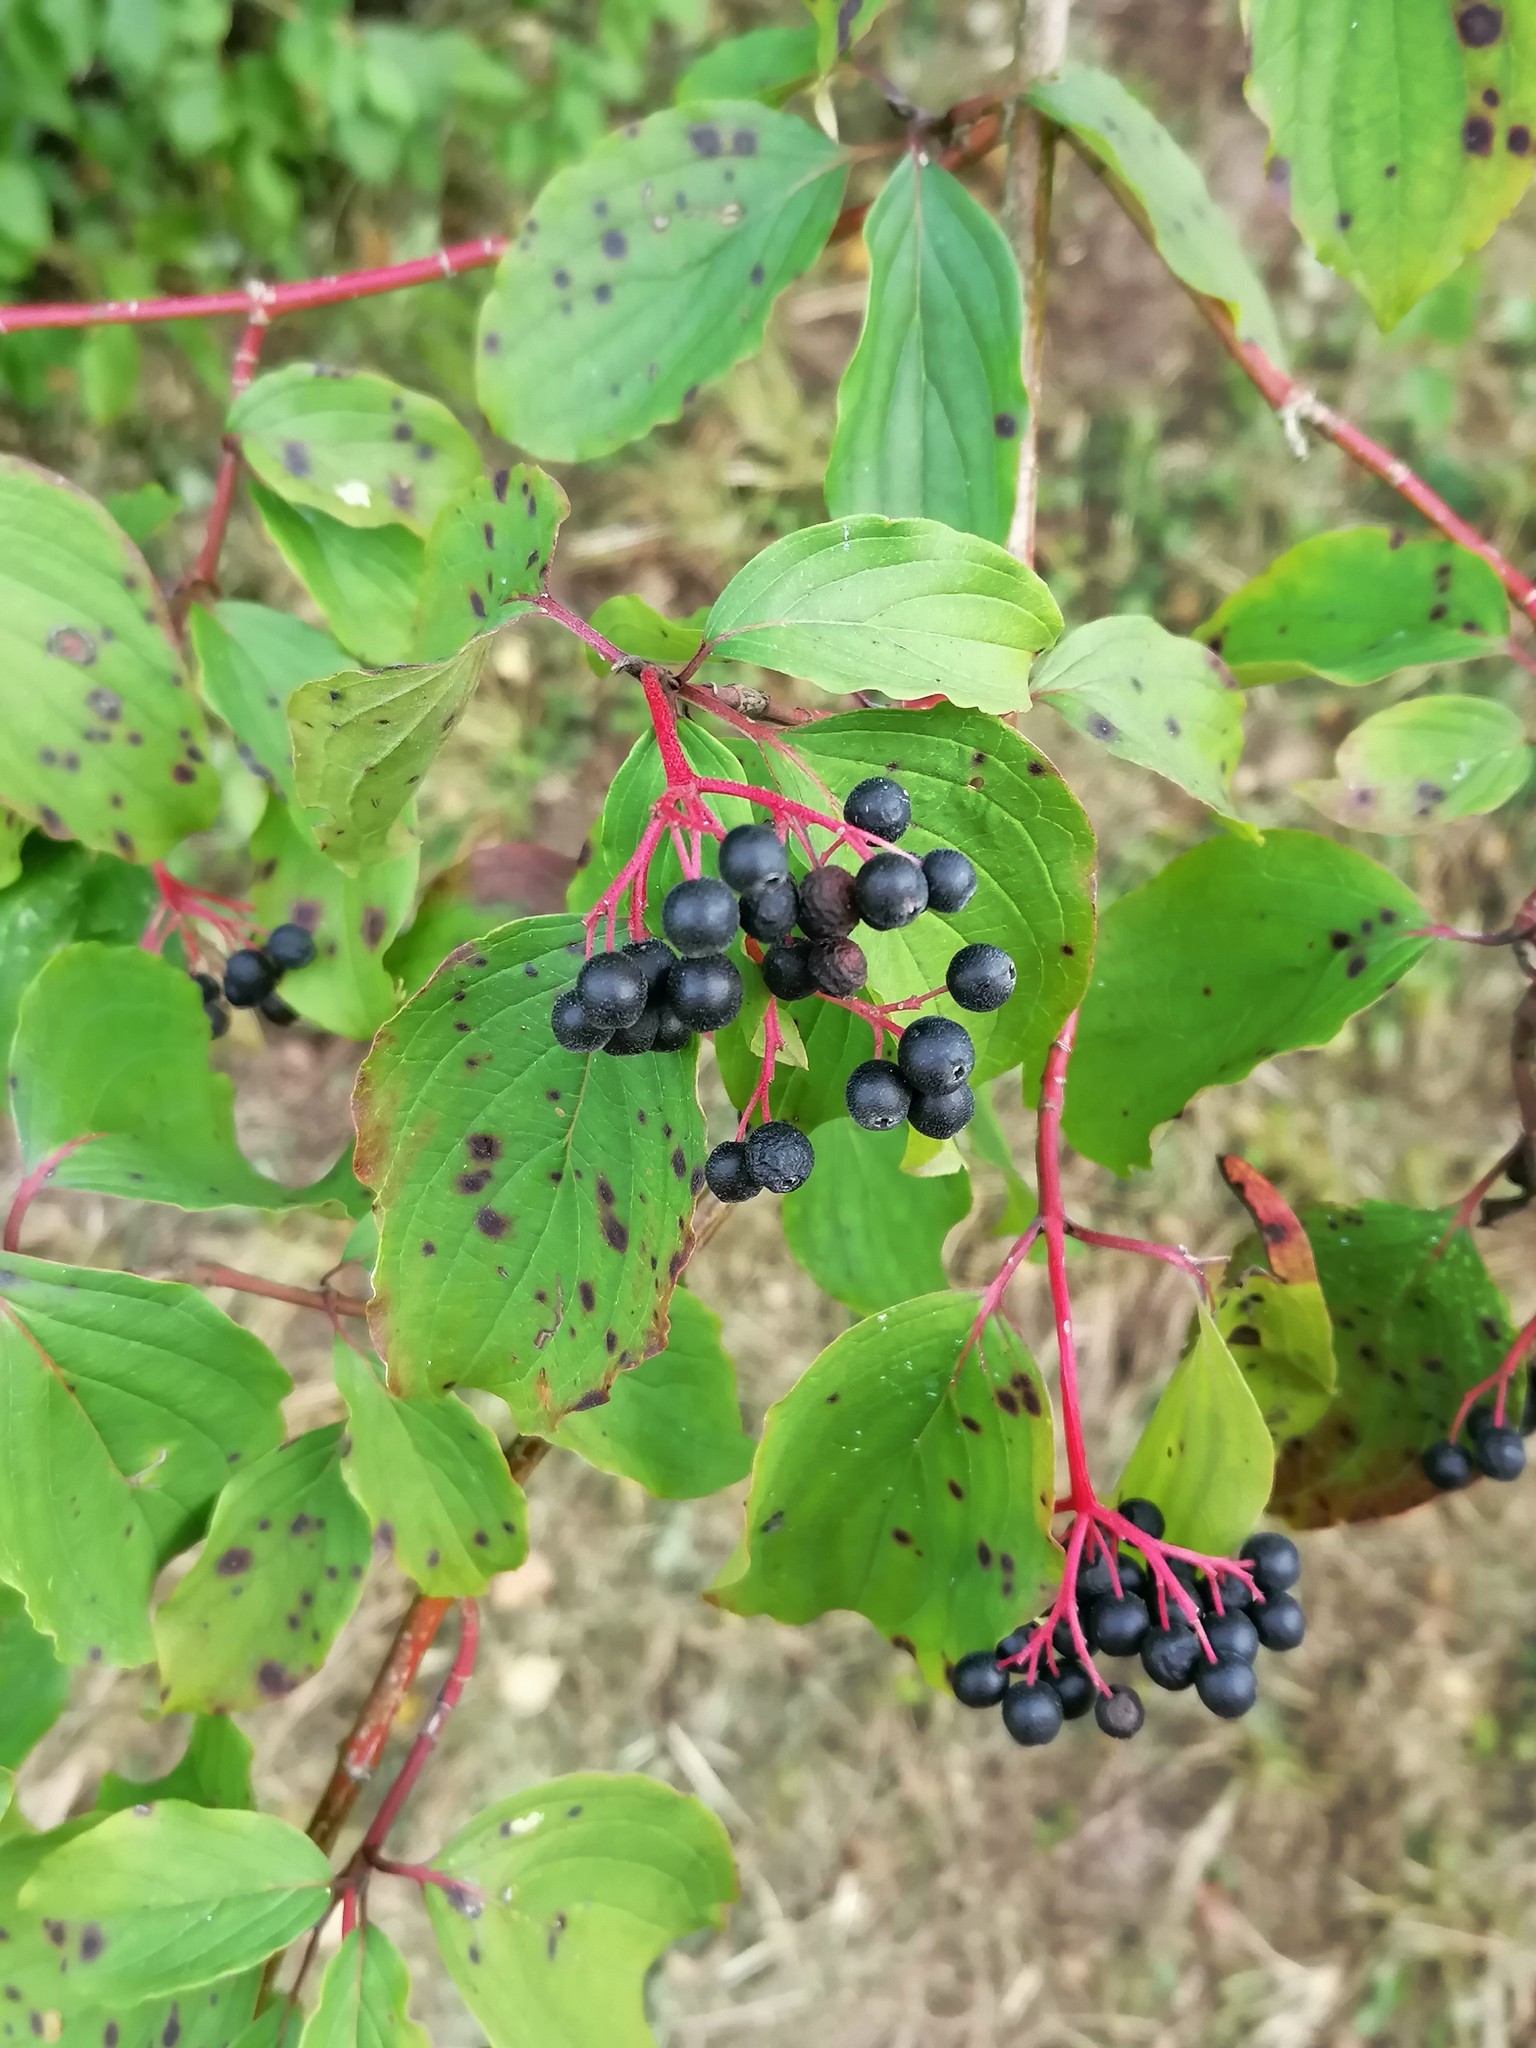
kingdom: Plantae
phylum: Tracheophyta
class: Magnoliopsida
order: Cornales
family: Cornaceae
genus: Cornus
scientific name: Cornus sanguinea
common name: Dogwood
